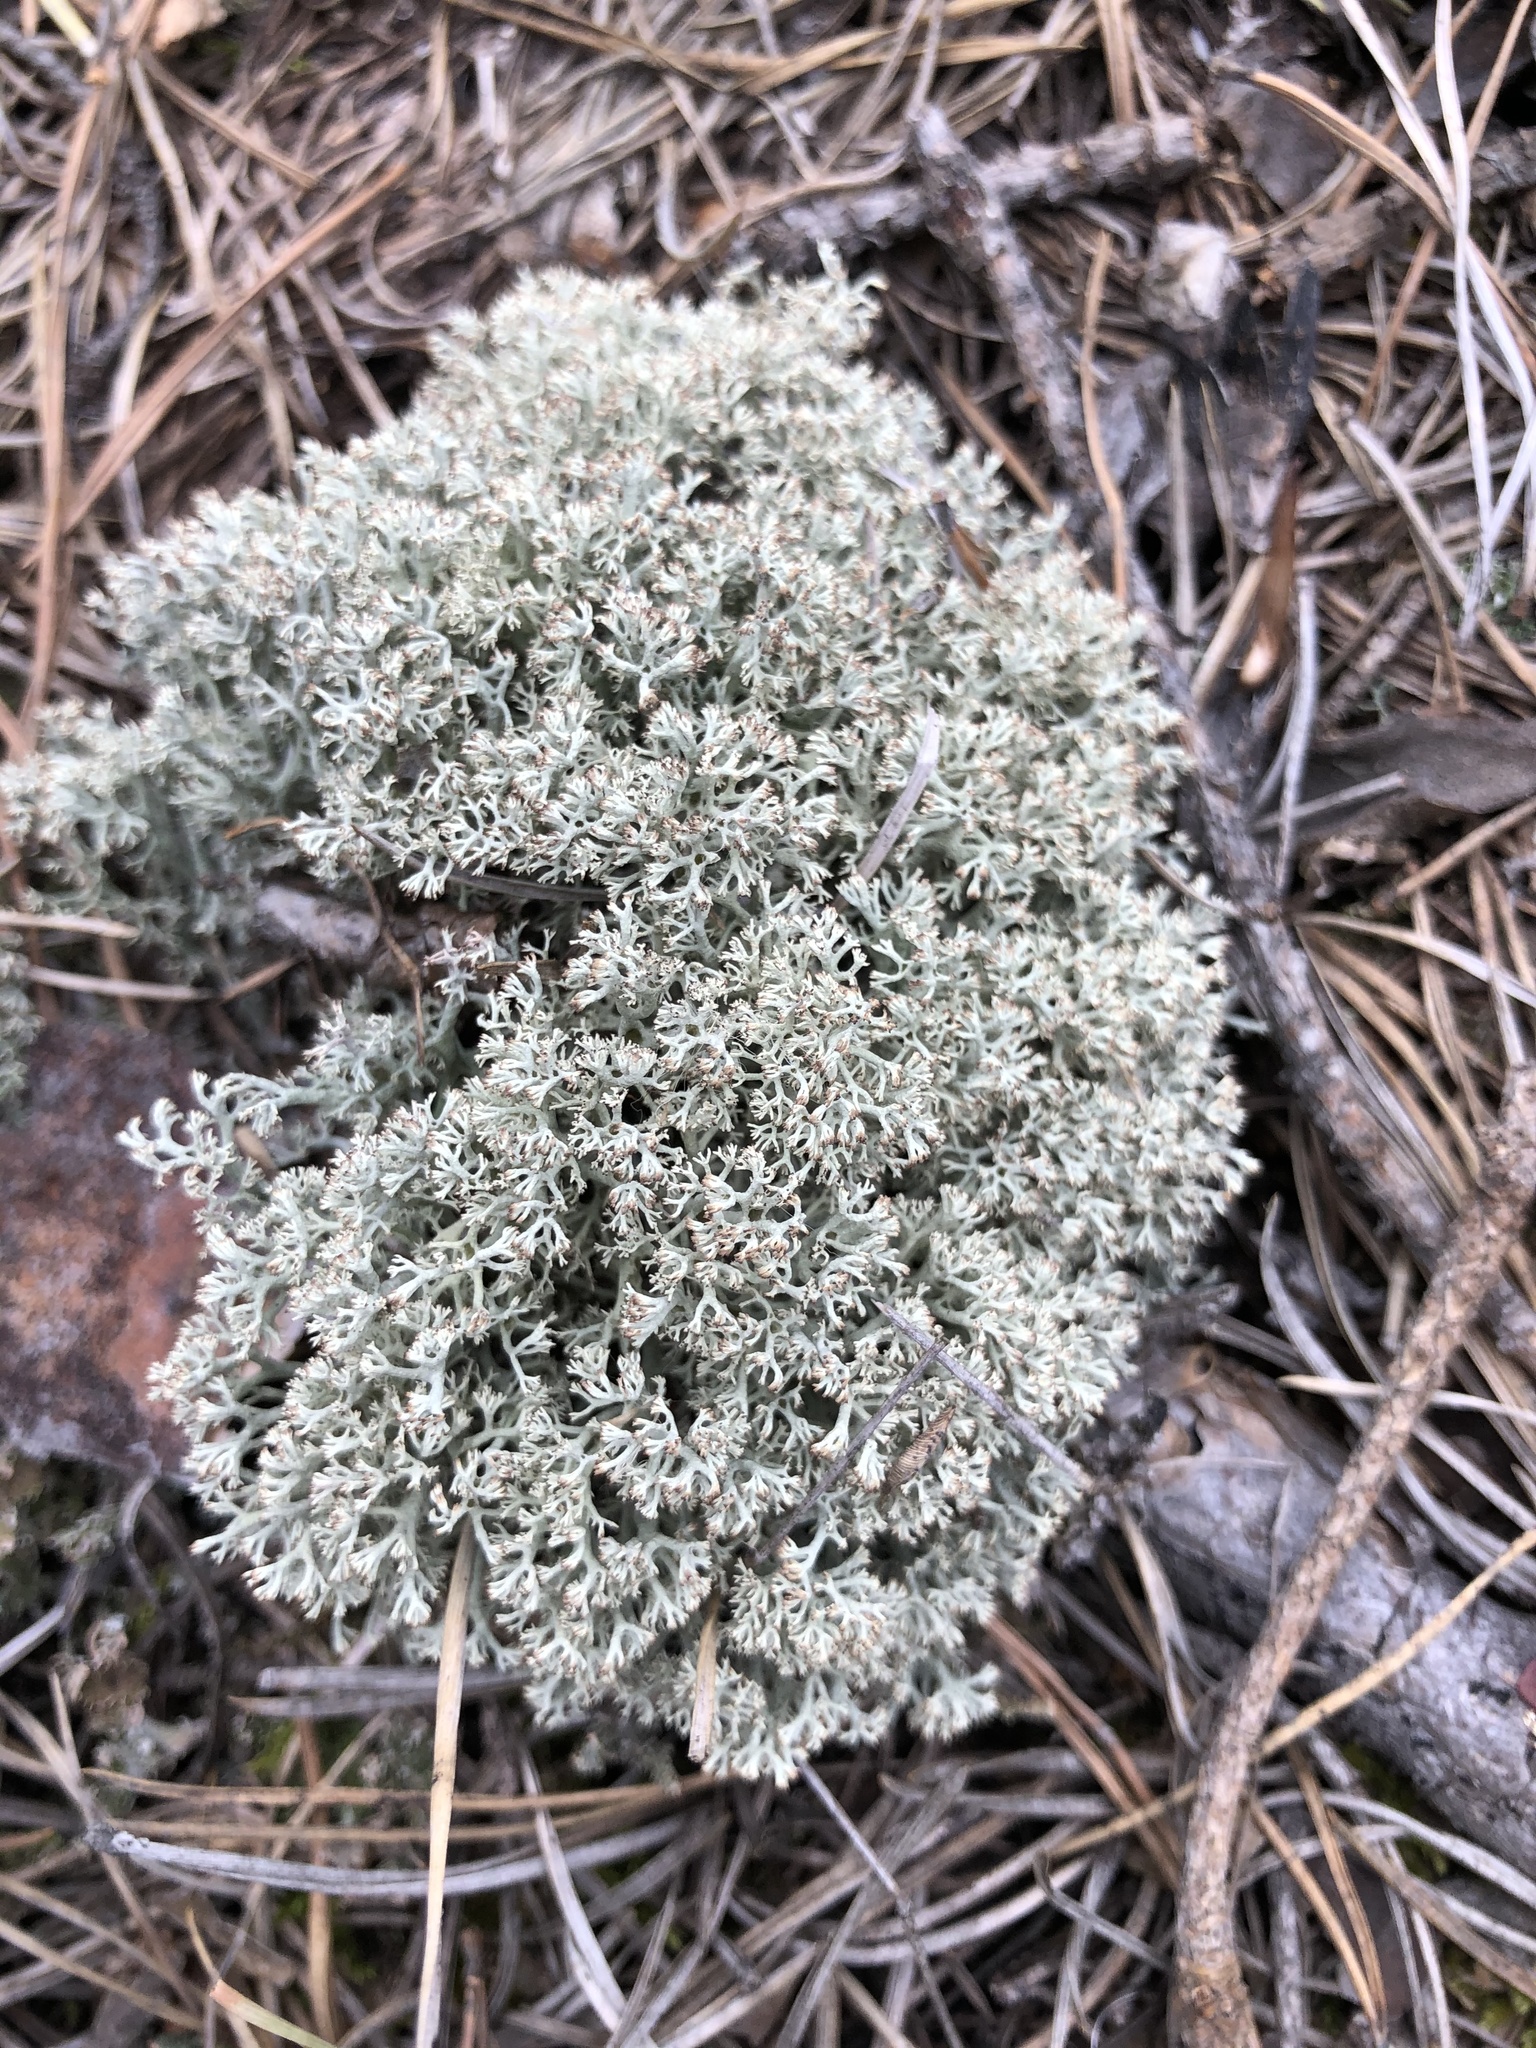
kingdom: Fungi
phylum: Ascomycota
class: Lecanoromycetes
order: Lecanorales
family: Cladoniaceae
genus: Cladonia
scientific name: Cladonia arbuscula
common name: Reindeer lichen
